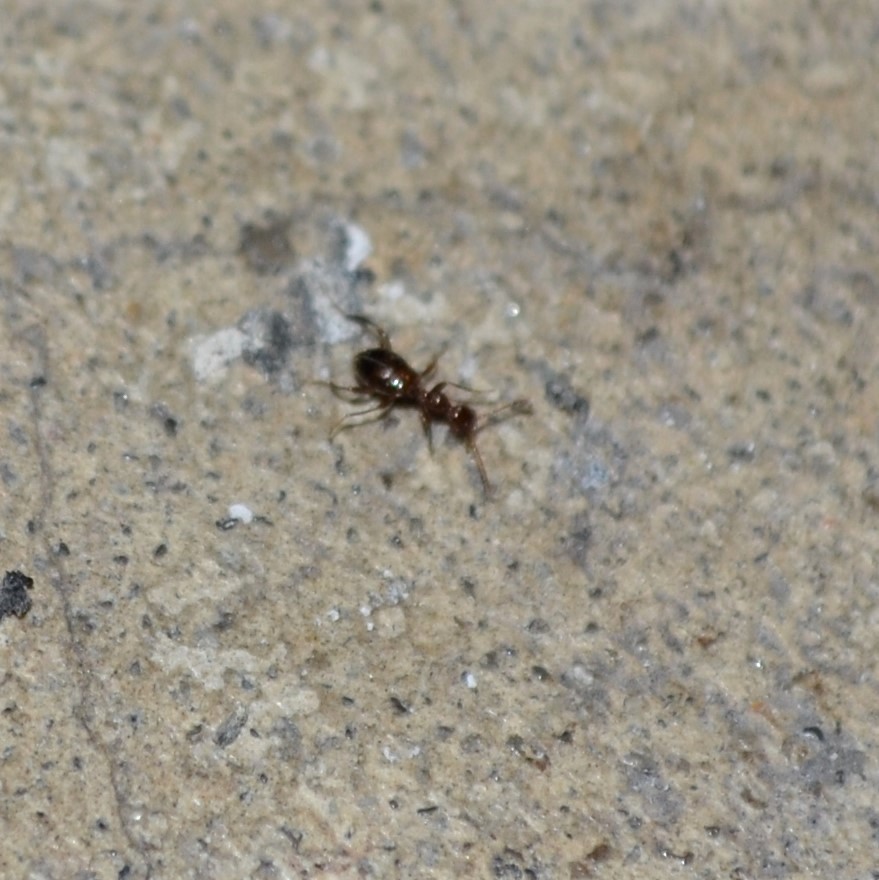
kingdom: Animalia
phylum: Arthropoda
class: Insecta
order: Coleoptera
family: Anthicidae
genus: Acanthinus
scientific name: Acanthinus
